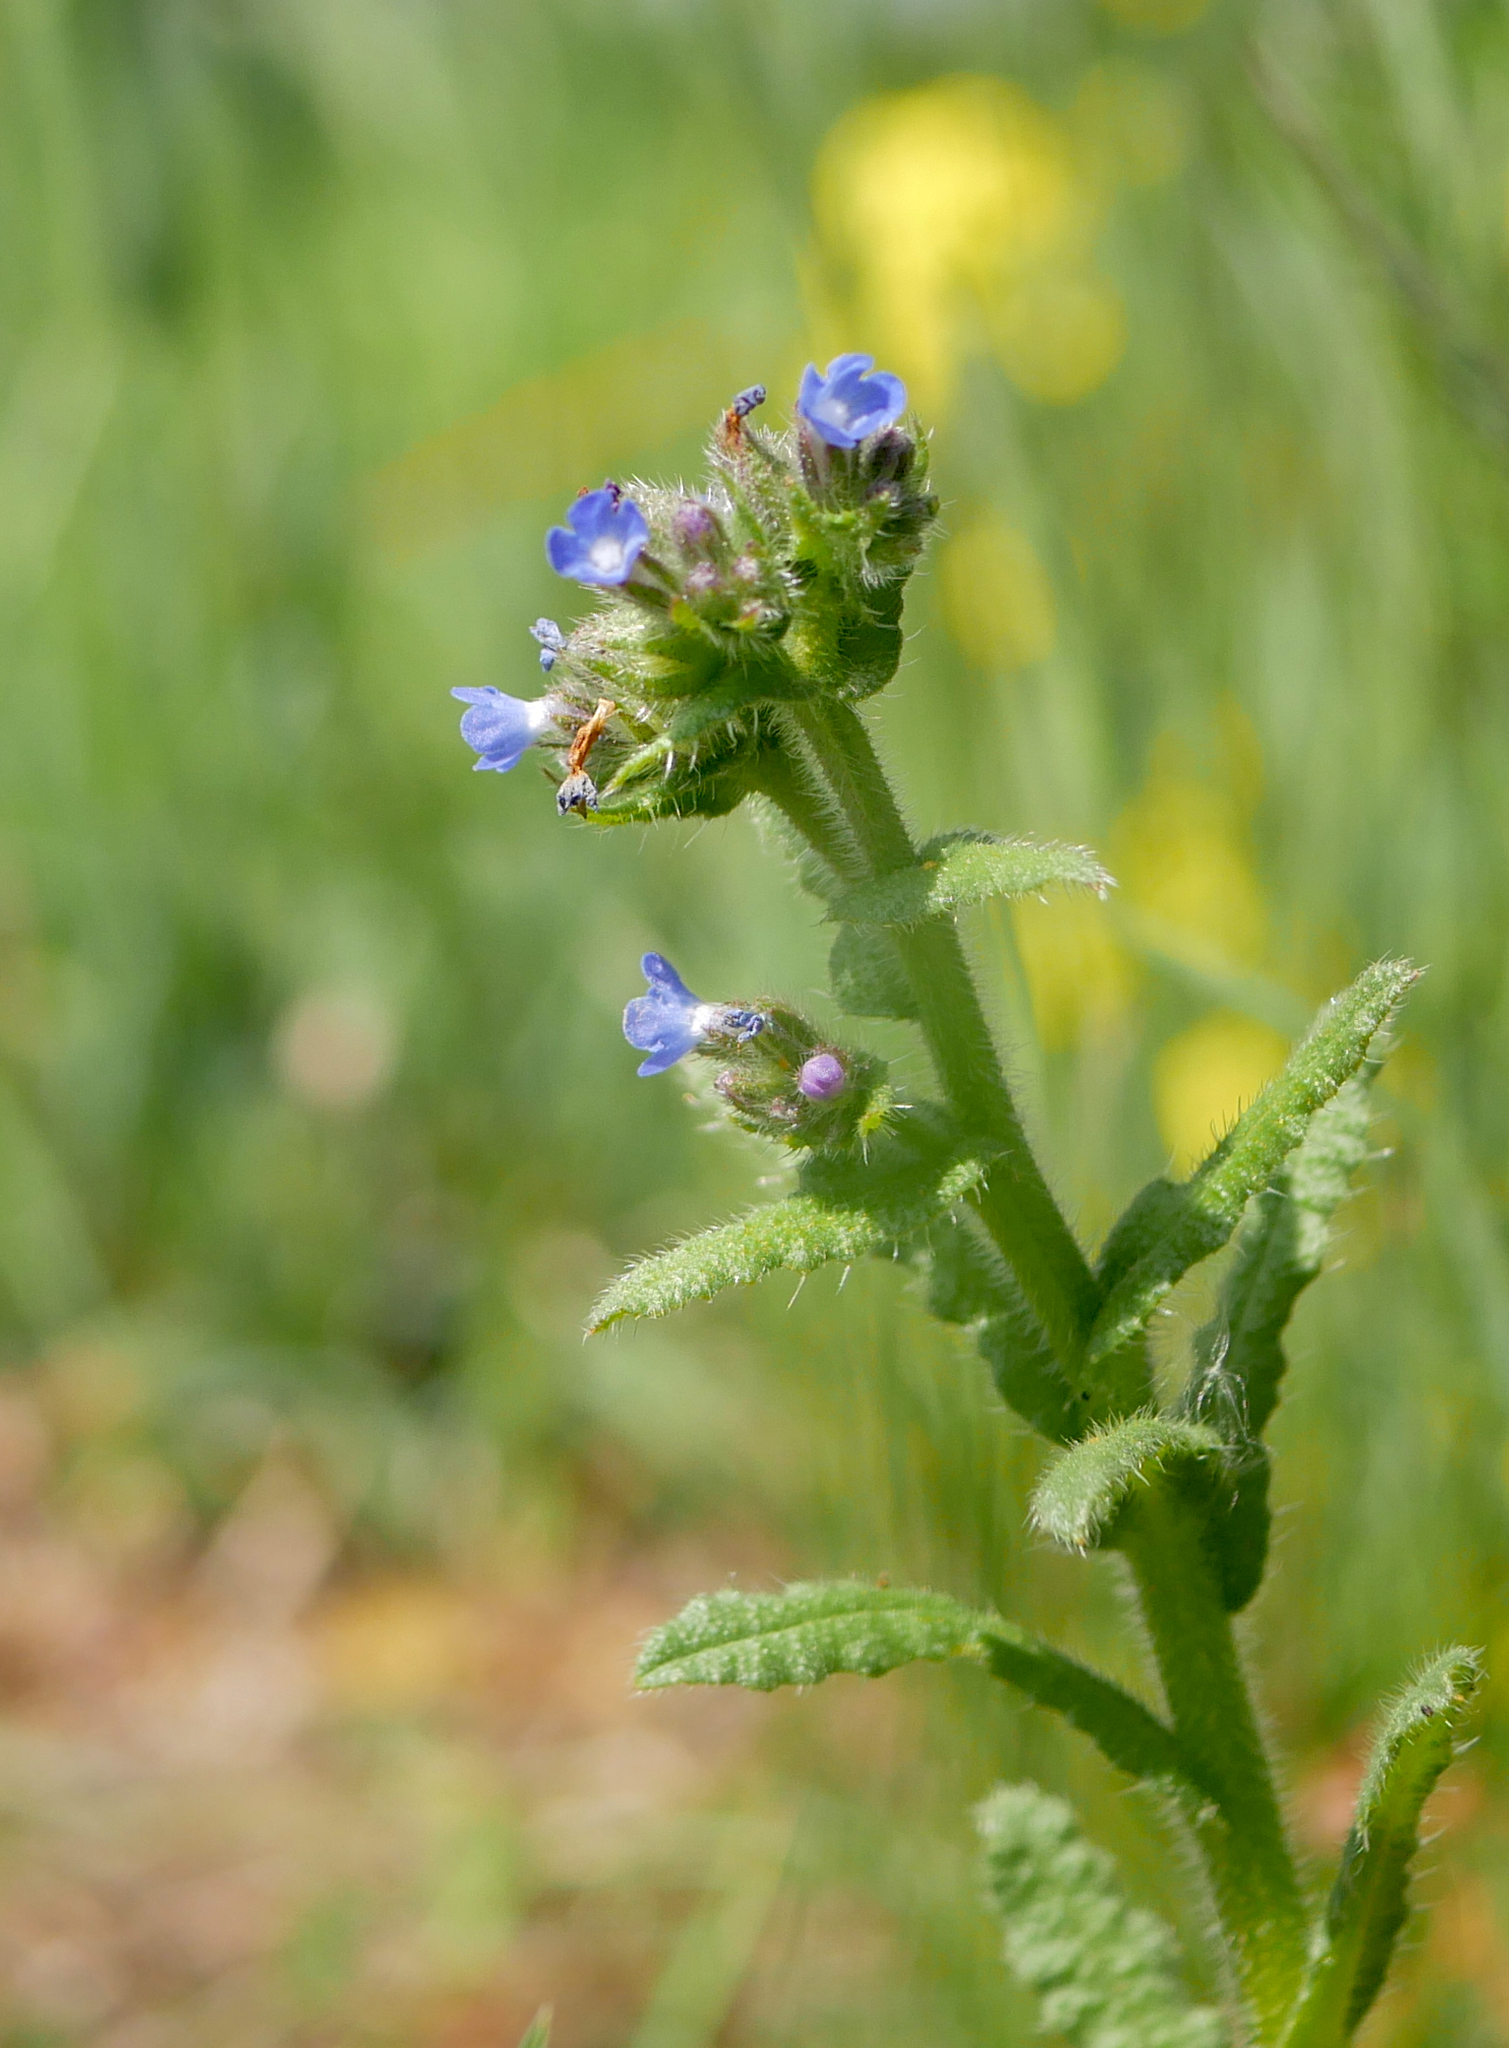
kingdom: Plantae
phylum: Tracheophyta
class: Magnoliopsida
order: Boraginales
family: Boraginaceae
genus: Lycopsis
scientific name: Lycopsis arvensis
